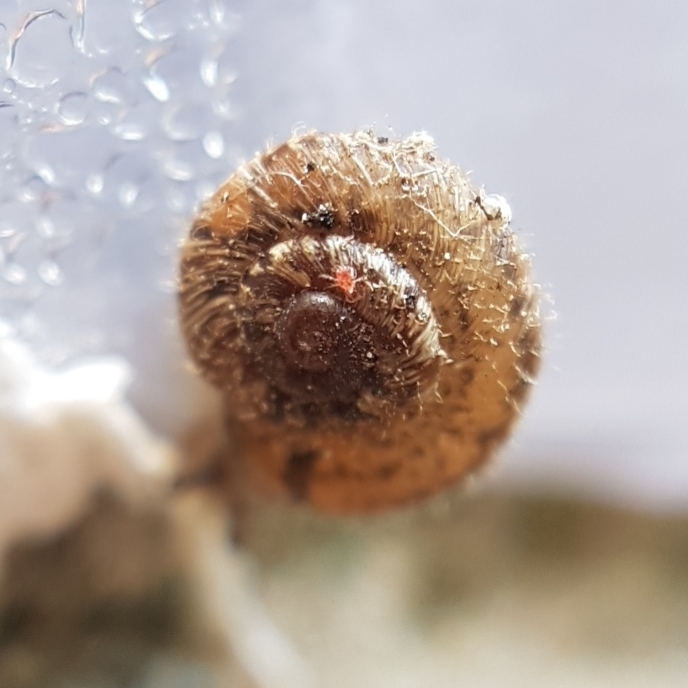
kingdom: Animalia
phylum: Mollusca
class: Gastropoda
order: Stylommatophora
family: Geomitridae
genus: Xerotricha
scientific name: Xerotricha conspurcata
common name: Snail
